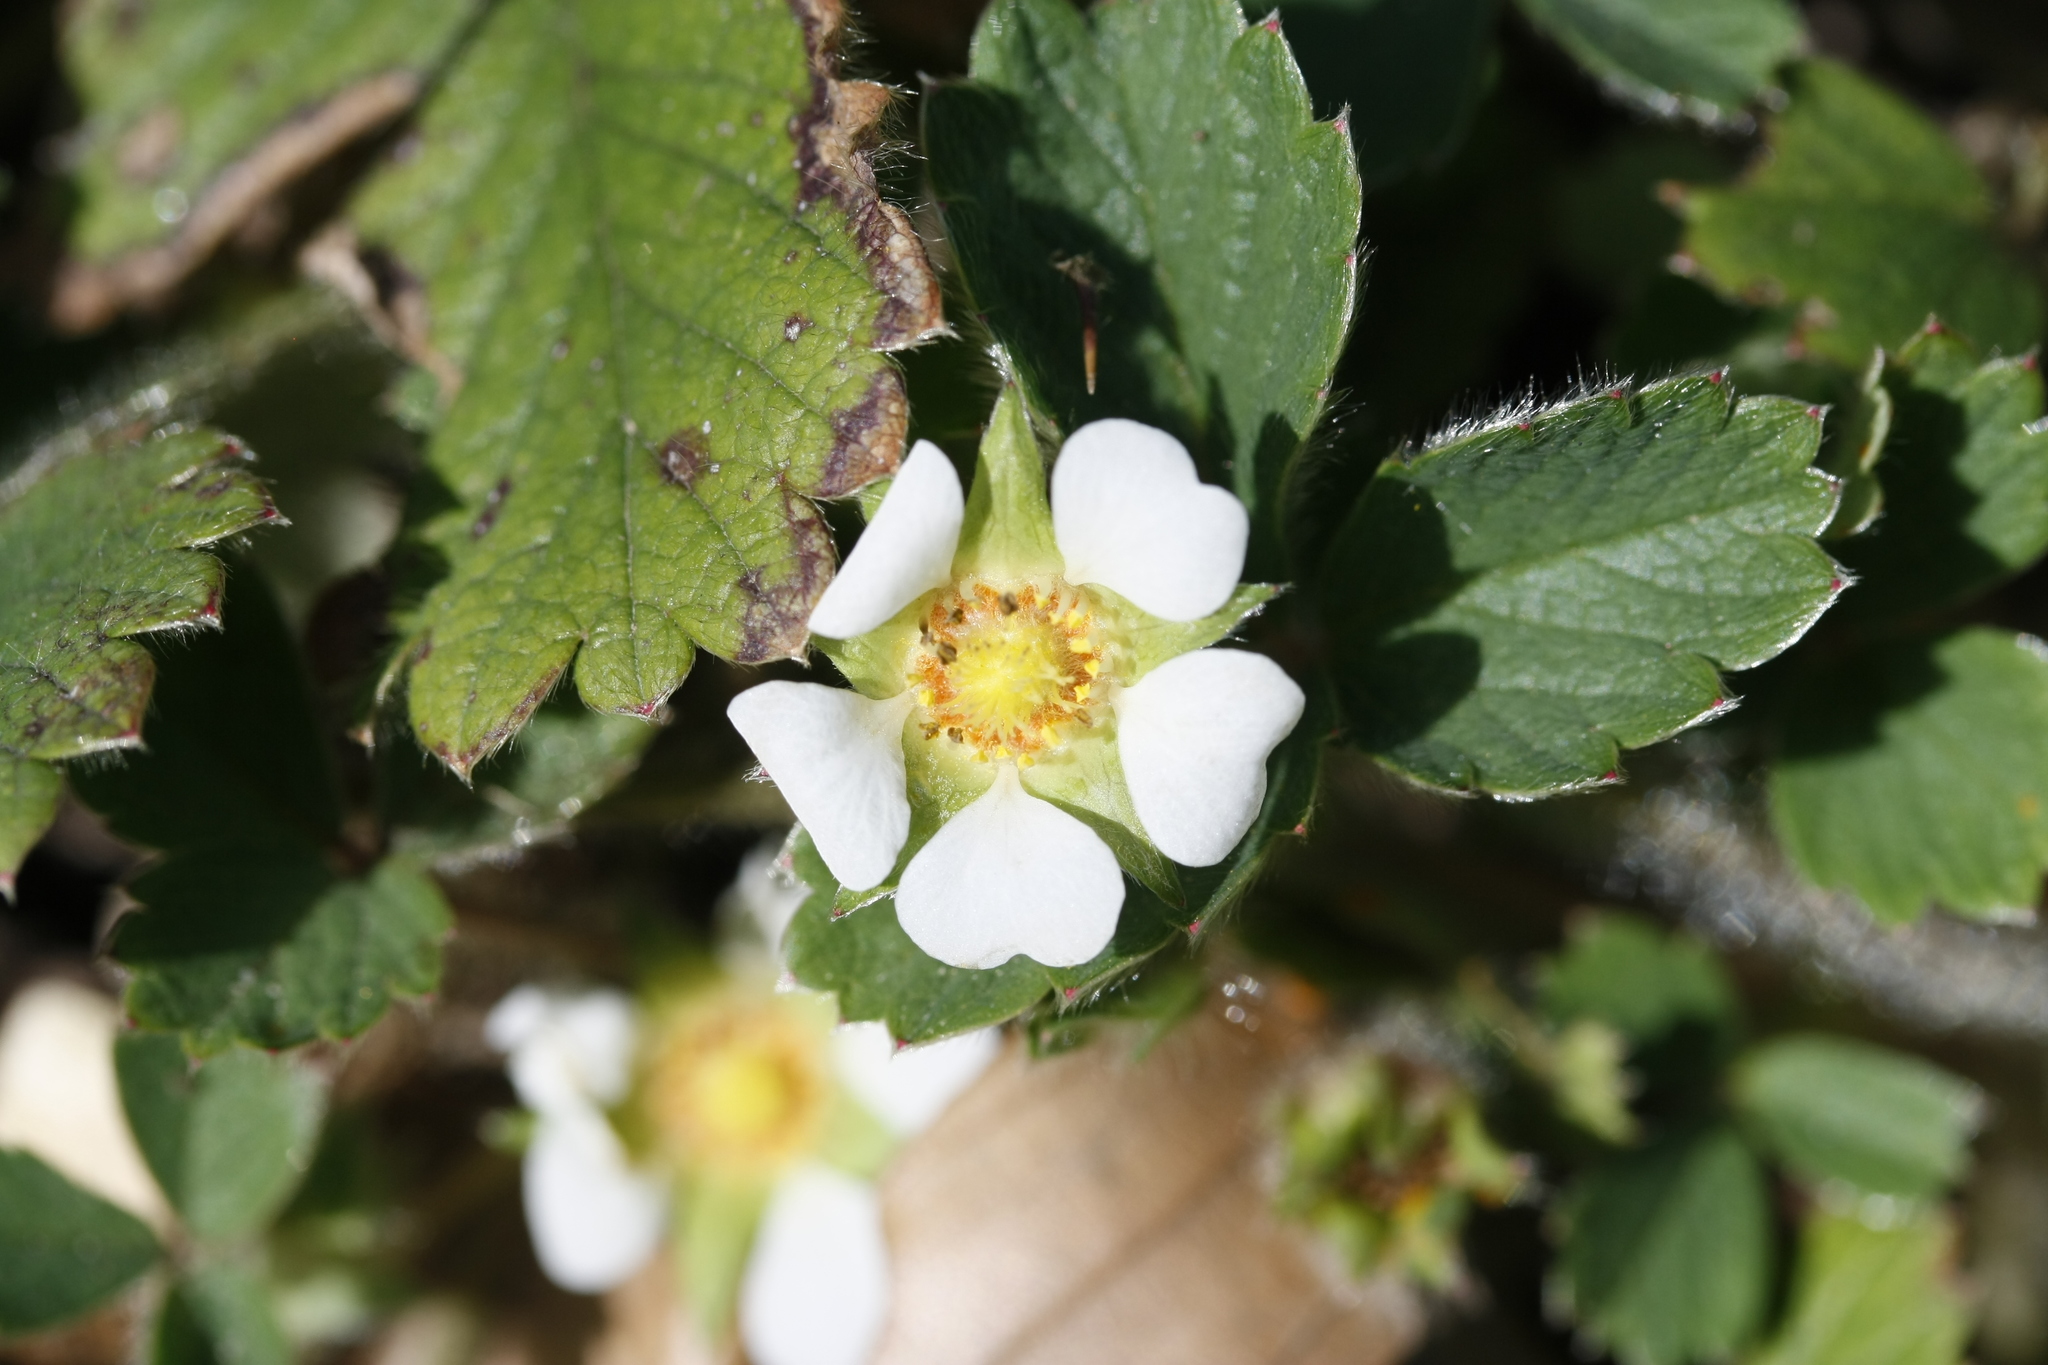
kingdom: Plantae
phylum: Tracheophyta
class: Magnoliopsida
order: Rosales
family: Rosaceae
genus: Potentilla
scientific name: Potentilla sterilis
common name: Barren strawberry
